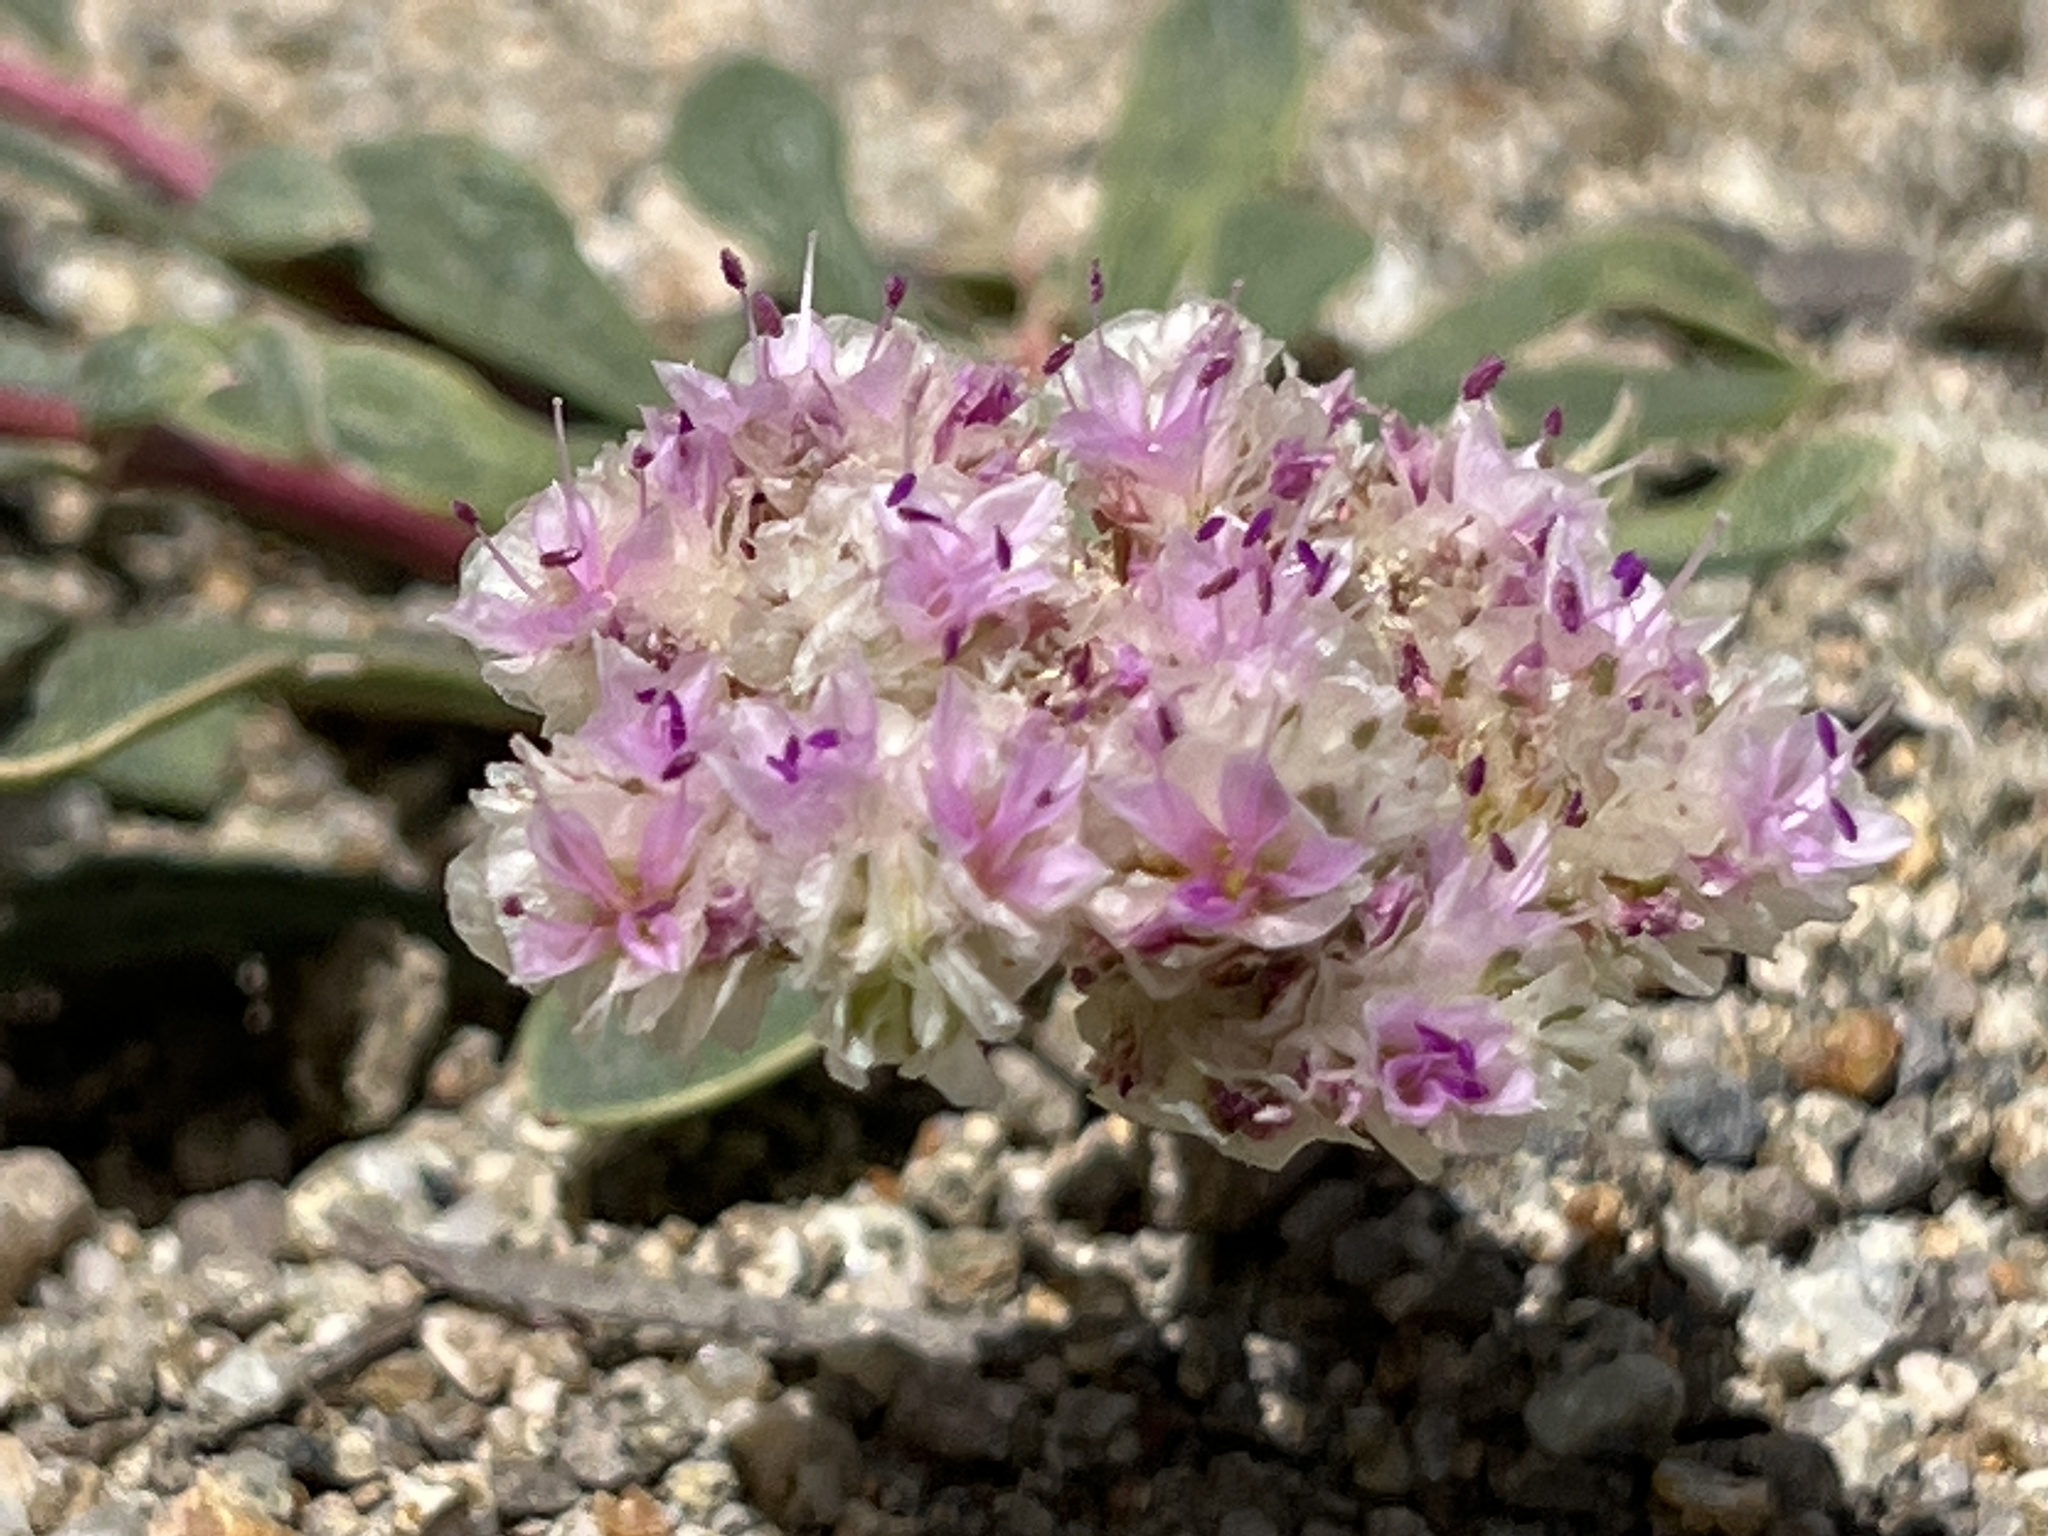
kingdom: Plantae
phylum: Tracheophyta
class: Magnoliopsida
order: Caryophyllales
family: Montiaceae
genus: Calyptridium
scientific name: Calyptridium monospermum
